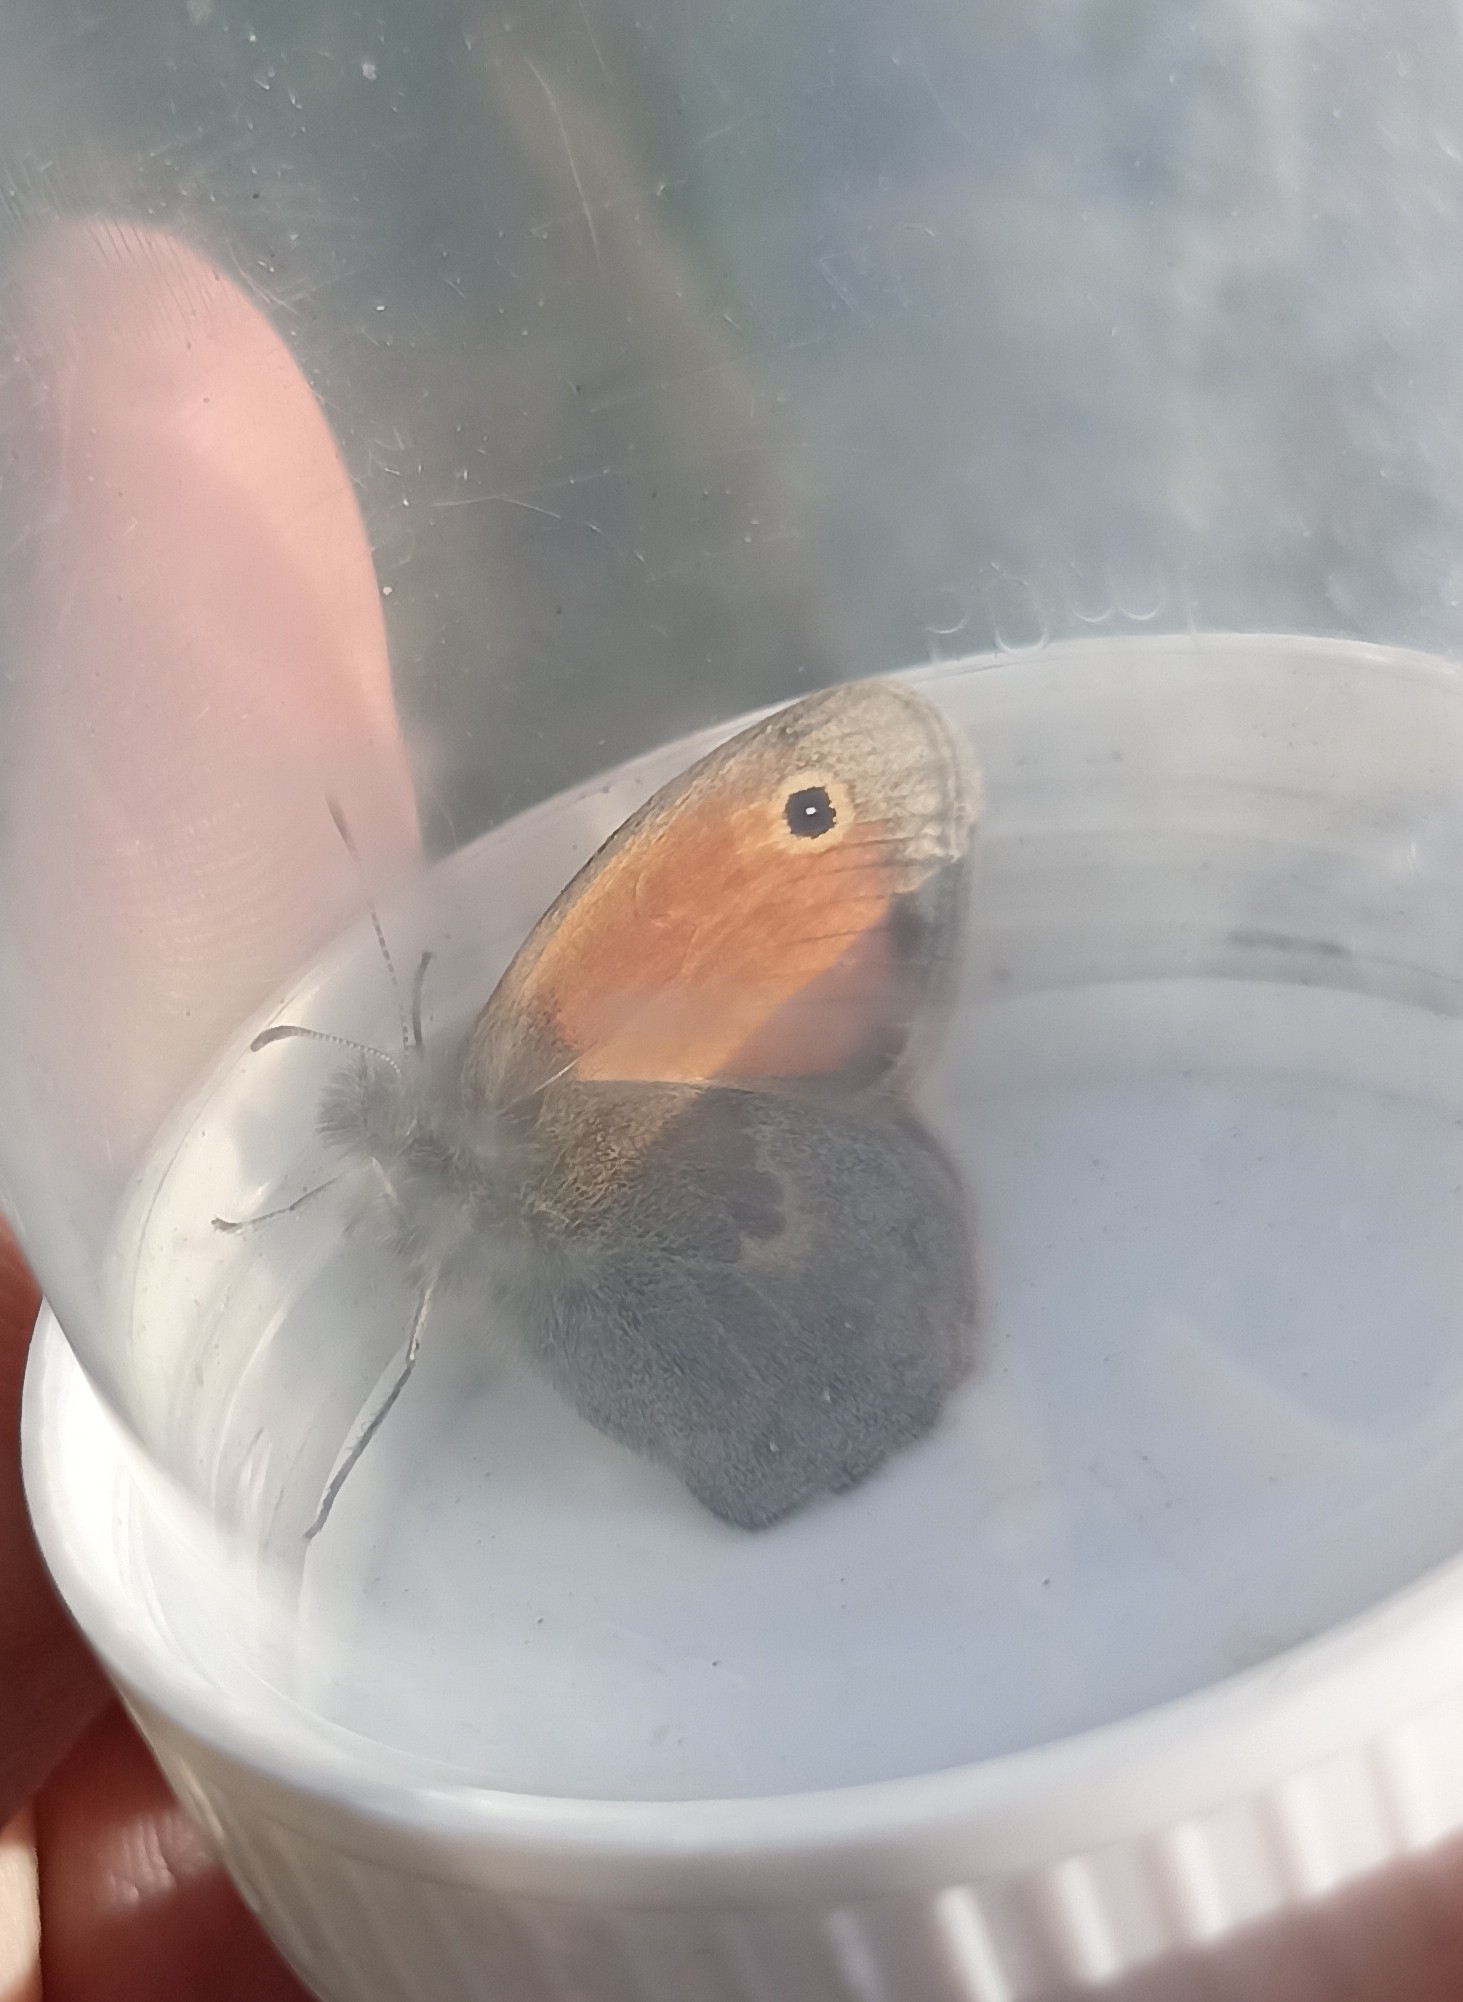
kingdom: Animalia
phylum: Arthropoda
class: Insecta
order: Lepidoptera
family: Nymphalidae
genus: Coenonympha
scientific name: Coenonympha pamphilus
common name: Small heath
